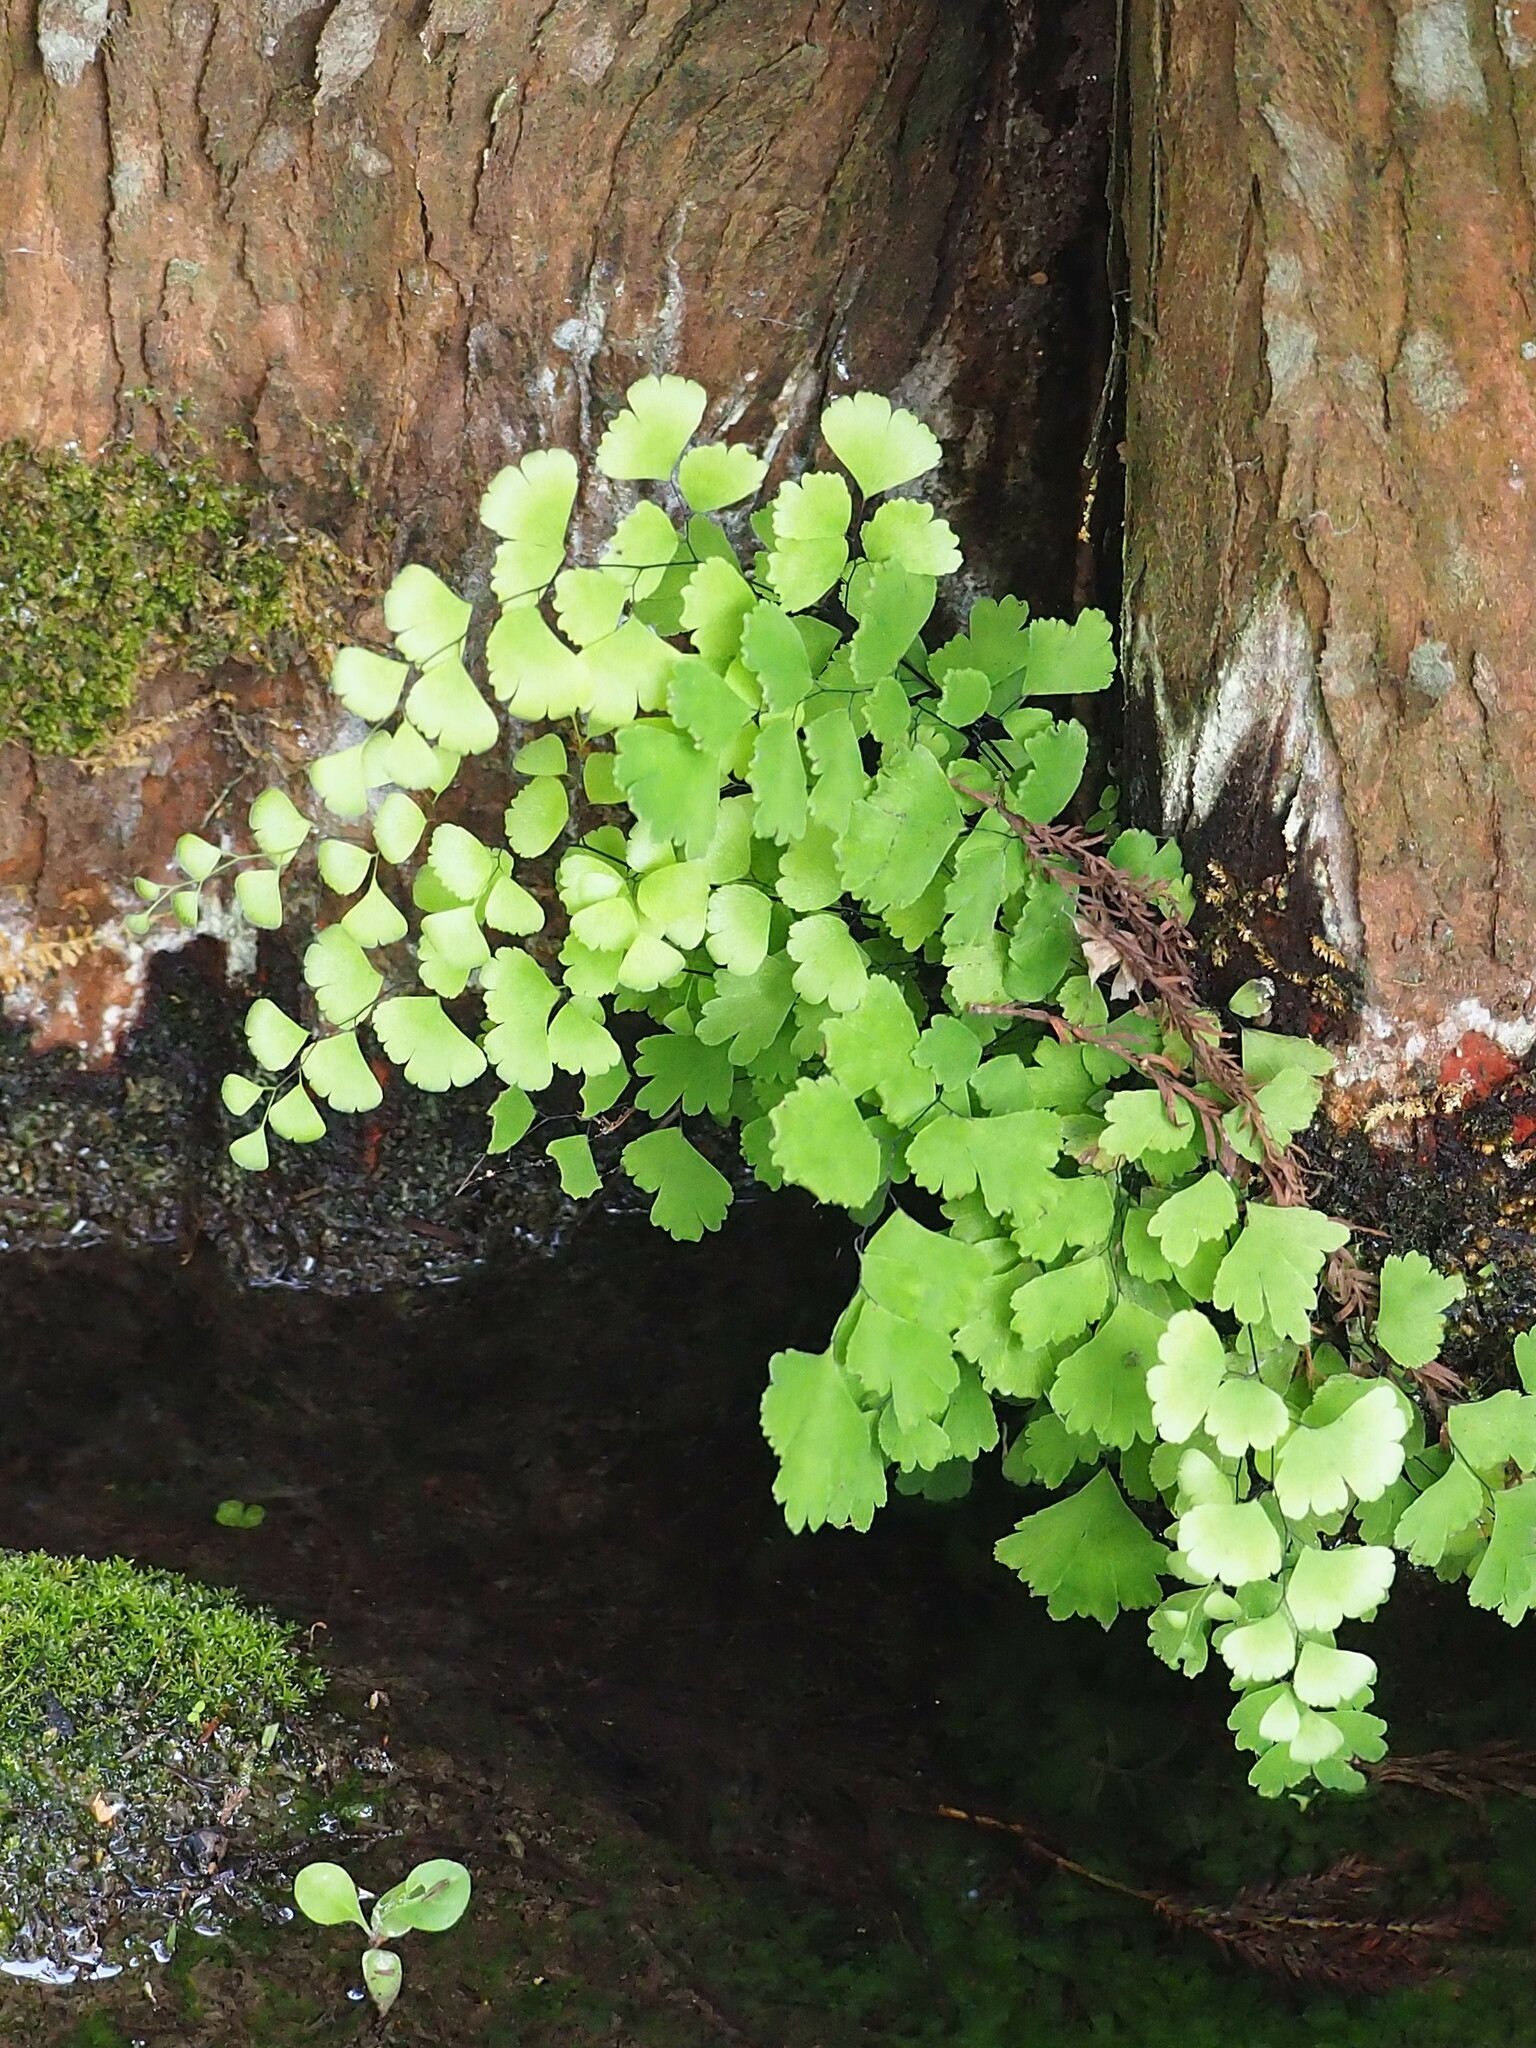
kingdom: Plantae
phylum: Tracheophyta
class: Polypodiopsida
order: Polypodiales
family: Pteridaceae
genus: Adiantum
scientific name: Adiantum capillus-veneris
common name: Maidenhair fern
